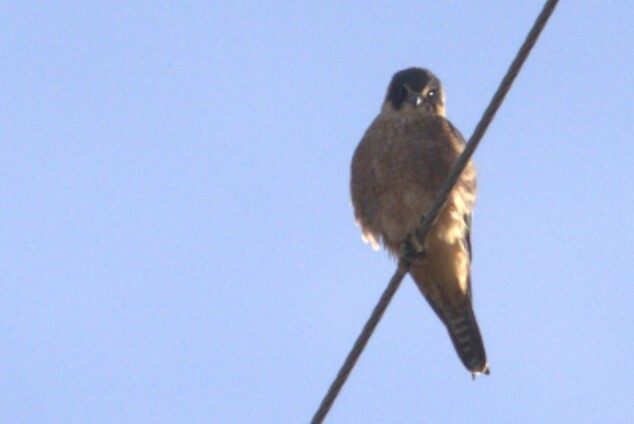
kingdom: Animalia
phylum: Chordata
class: Aves
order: Falconiformes
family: Falconidae
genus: Falco
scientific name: Falco longipennis
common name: Australian hobby
